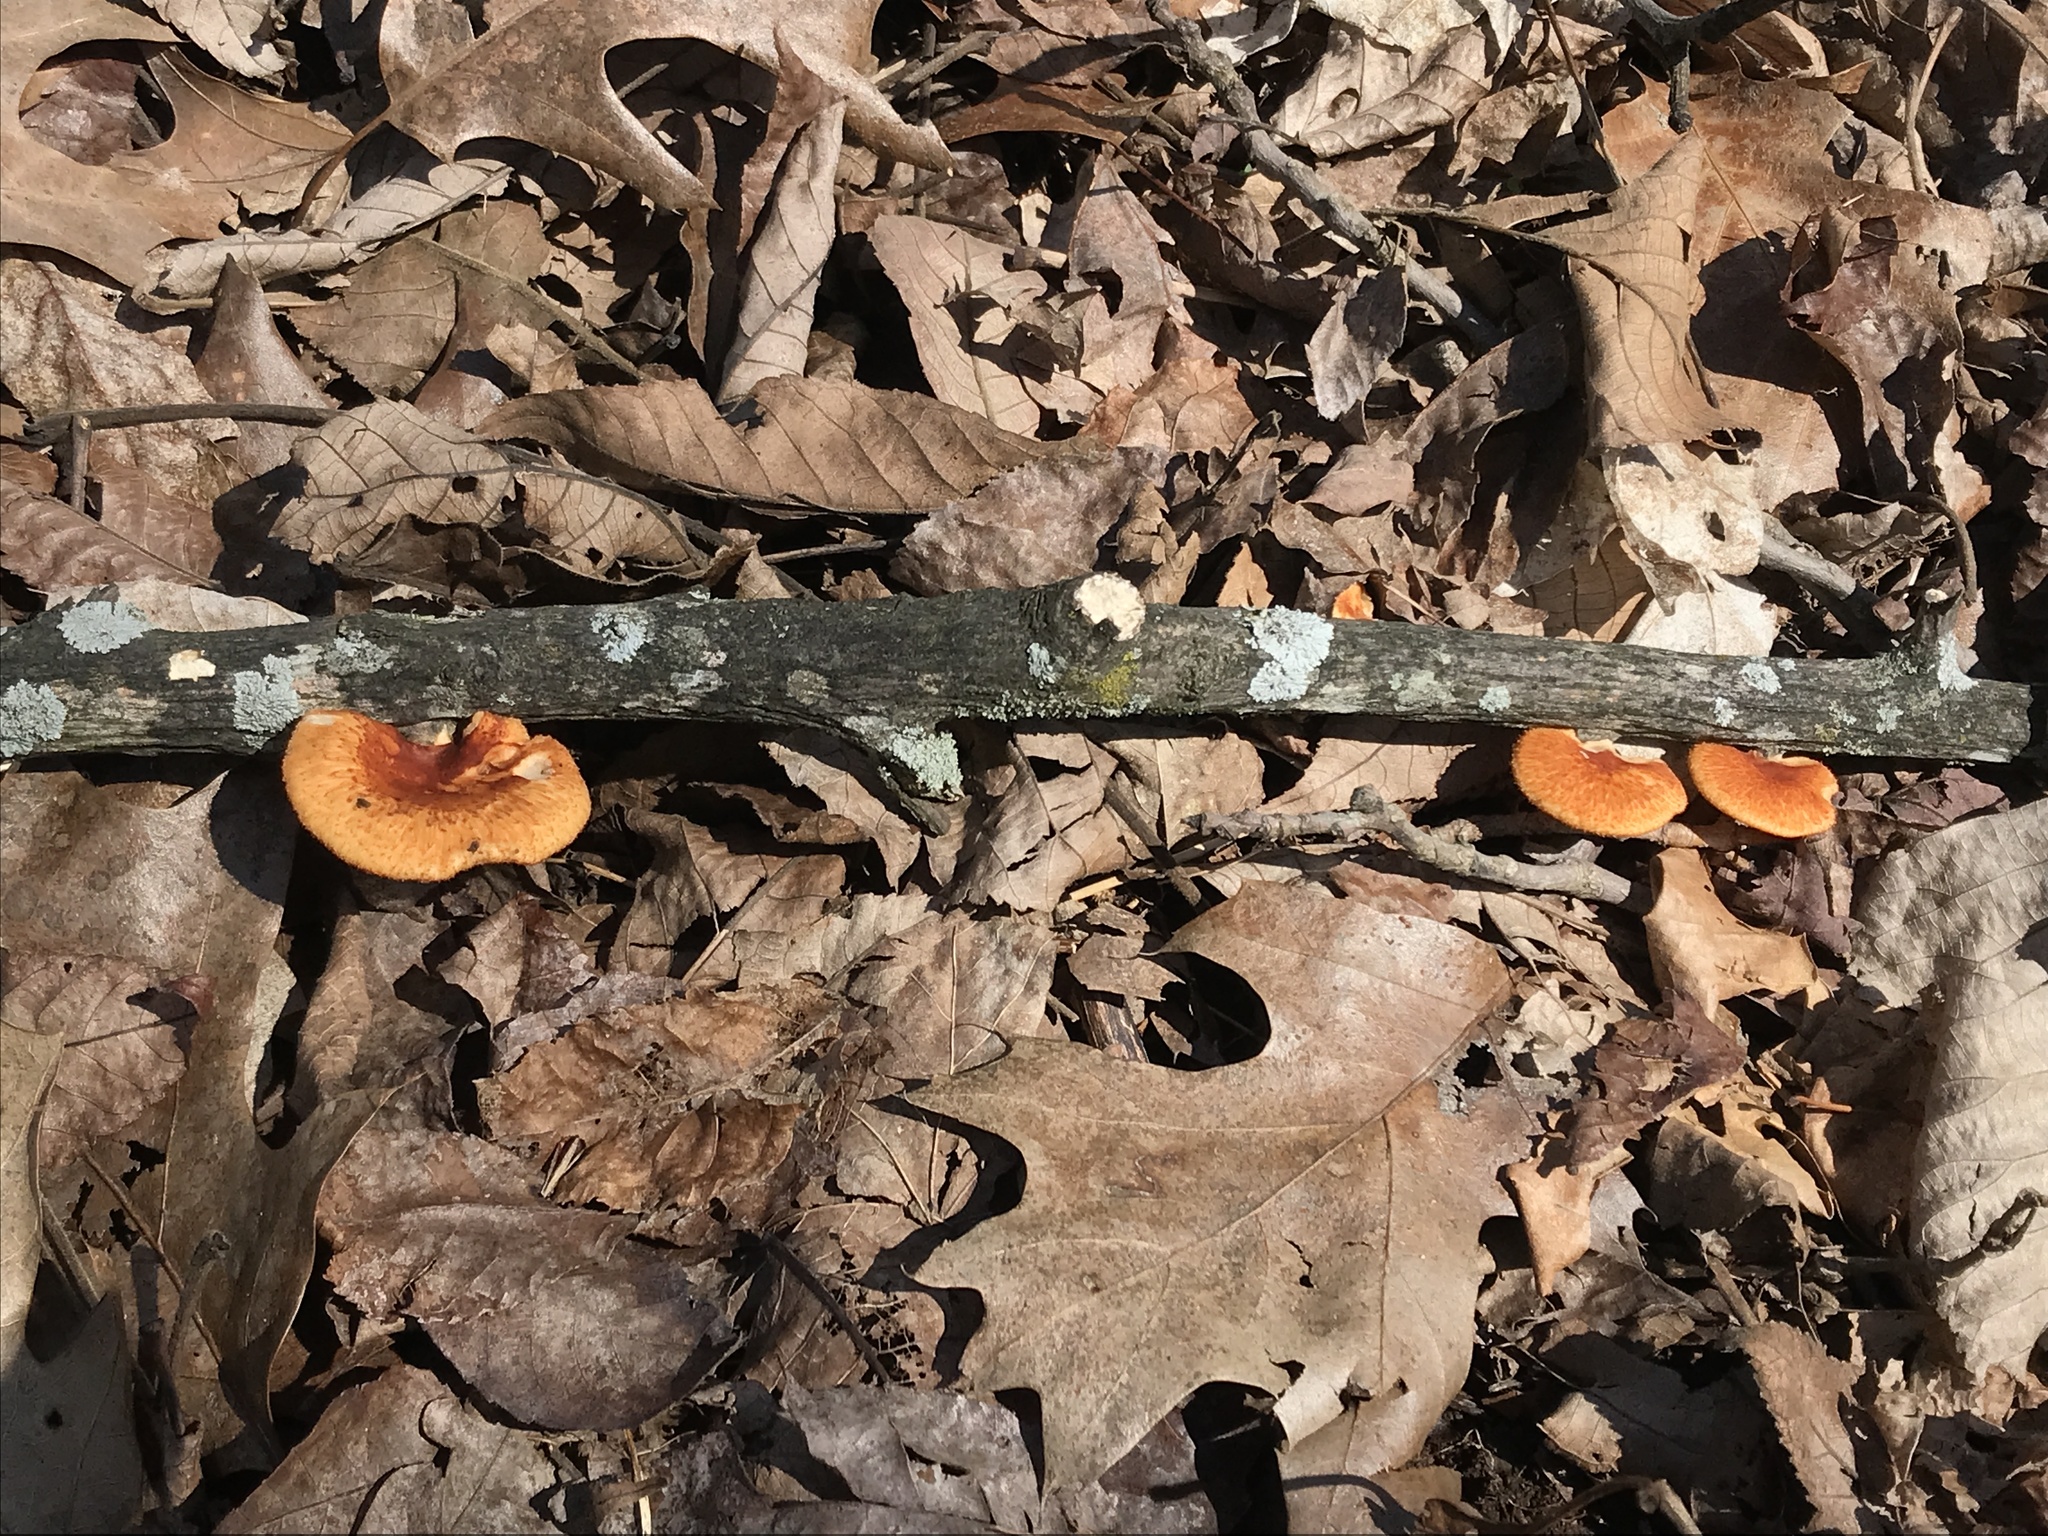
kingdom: Fungi
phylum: Basidiomycota
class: Agaricomycetes
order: Polyporales
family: Polyporaceae
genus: Neofavolus
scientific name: Neofavolus alveolaris
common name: Hexagonal-pored polypore
